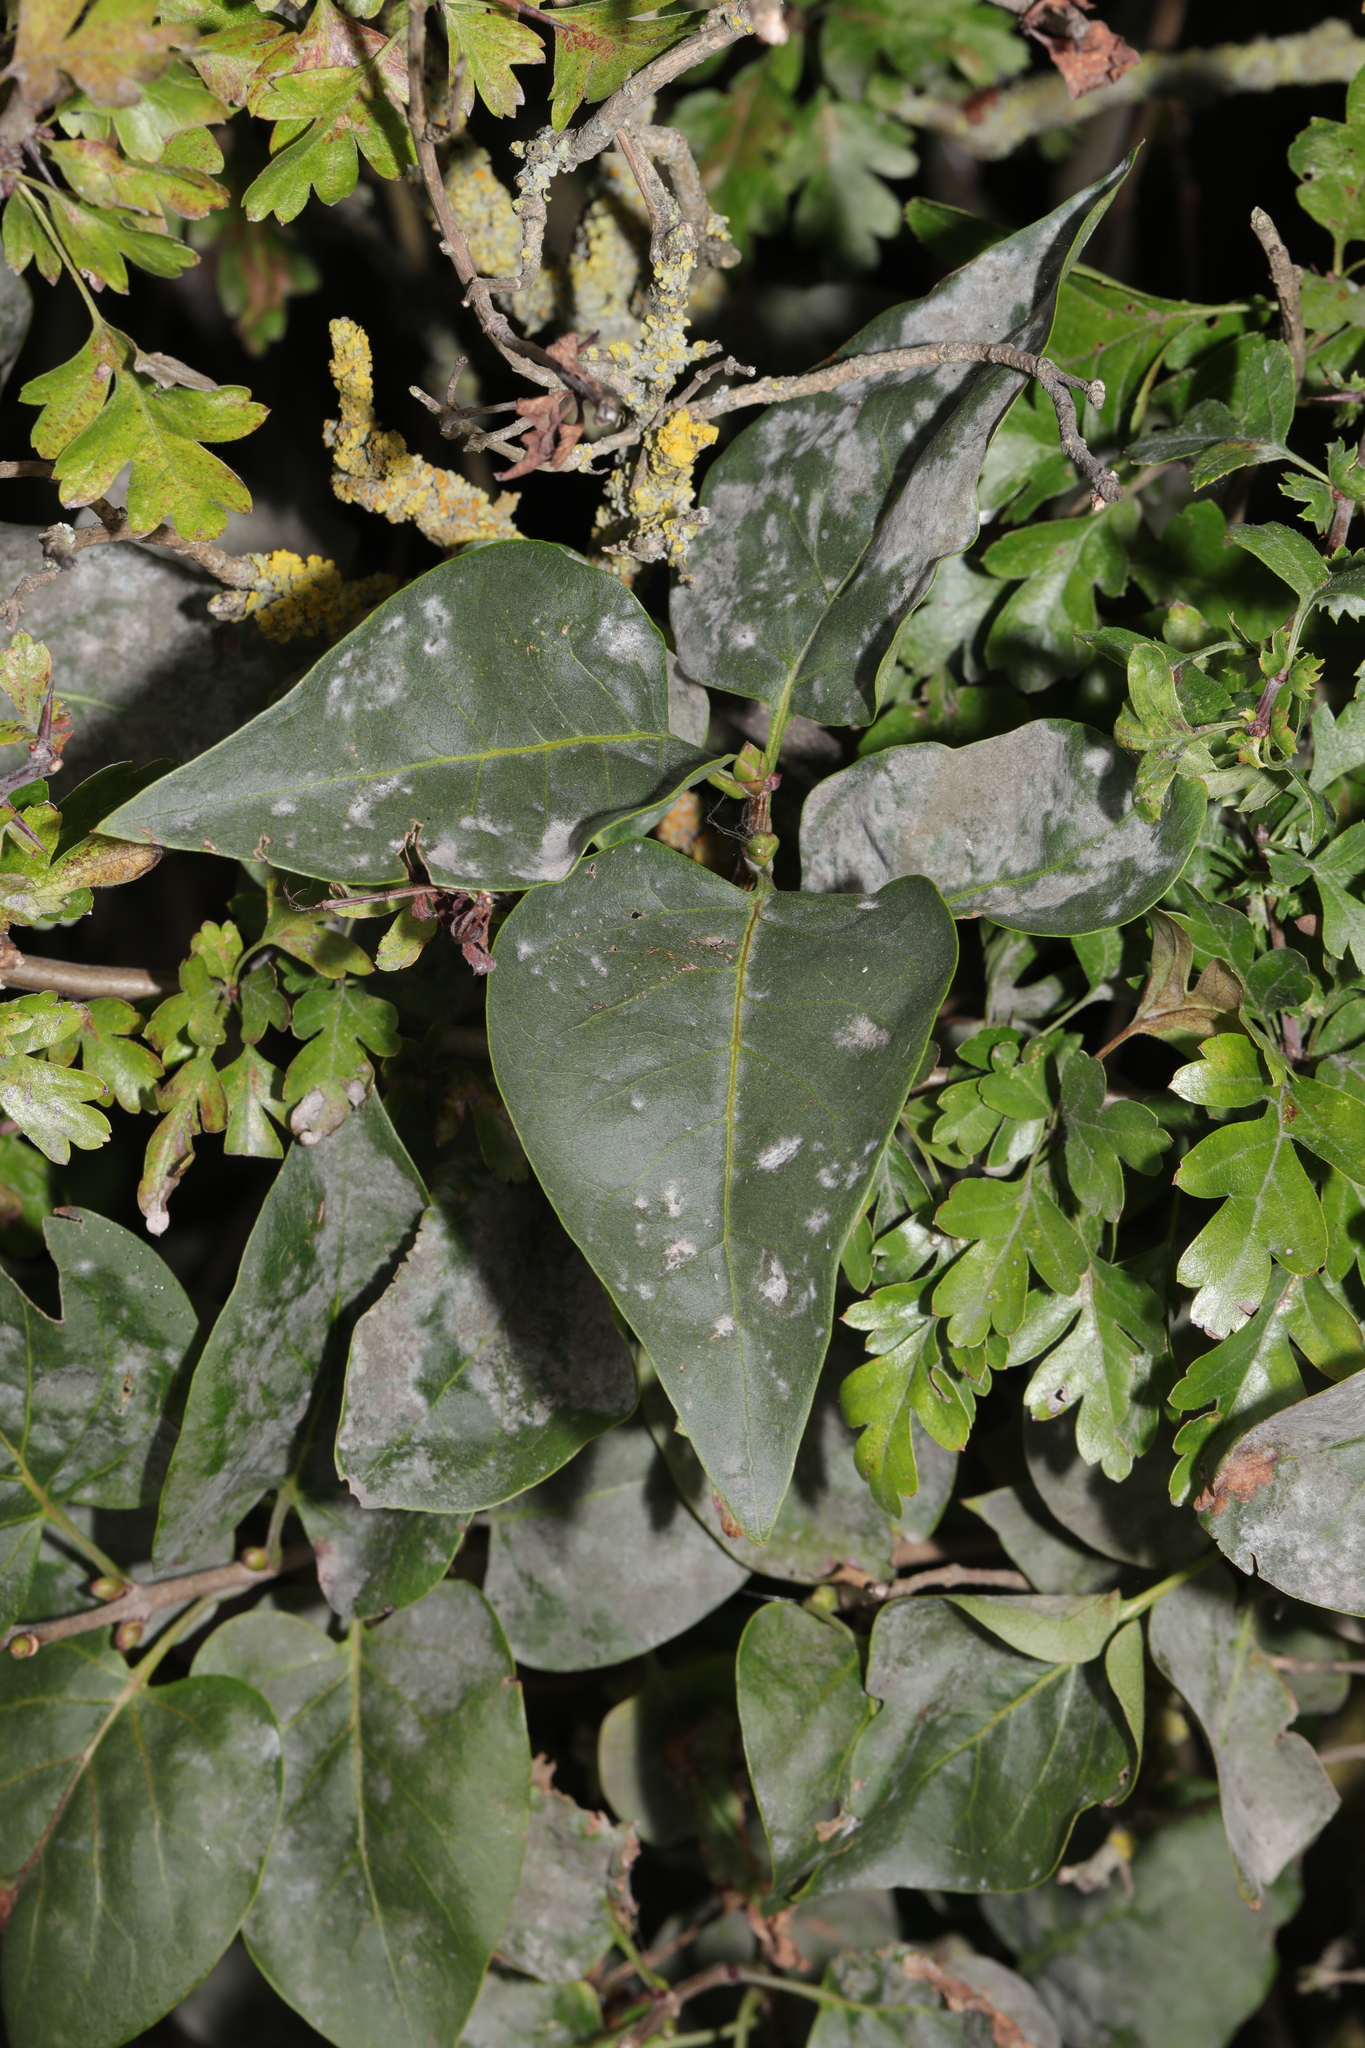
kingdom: Plantae
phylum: Tracheophyta
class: Magnoliopsida
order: Lamiales
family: Oleaceae
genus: Syringa
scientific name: Syringa vulgaris
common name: Common lilac
